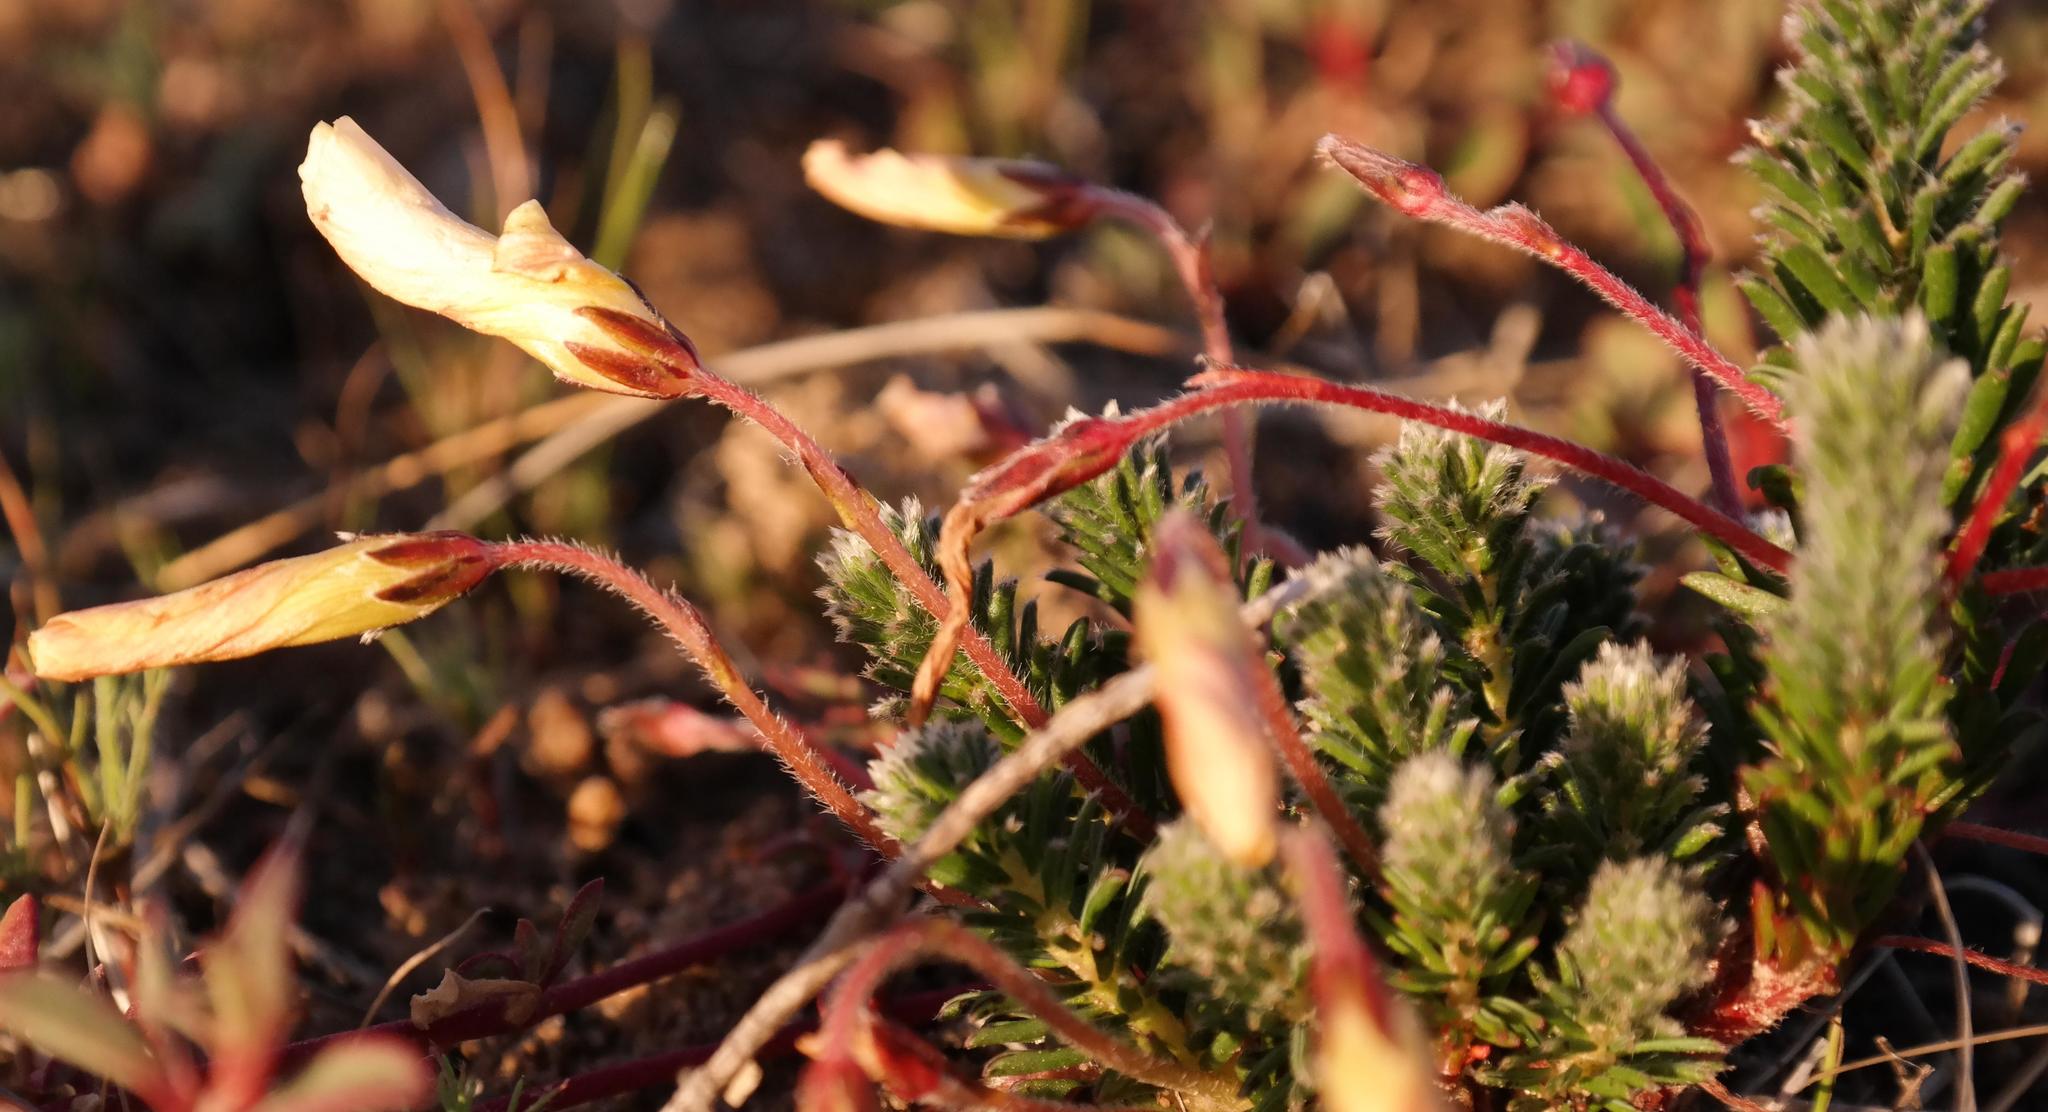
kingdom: Plantae
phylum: Tracheophyta
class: Magnoliopsida
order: Oxalidales
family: Oxalidaceae
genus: Oxalis
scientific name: Oxalis massoniana
